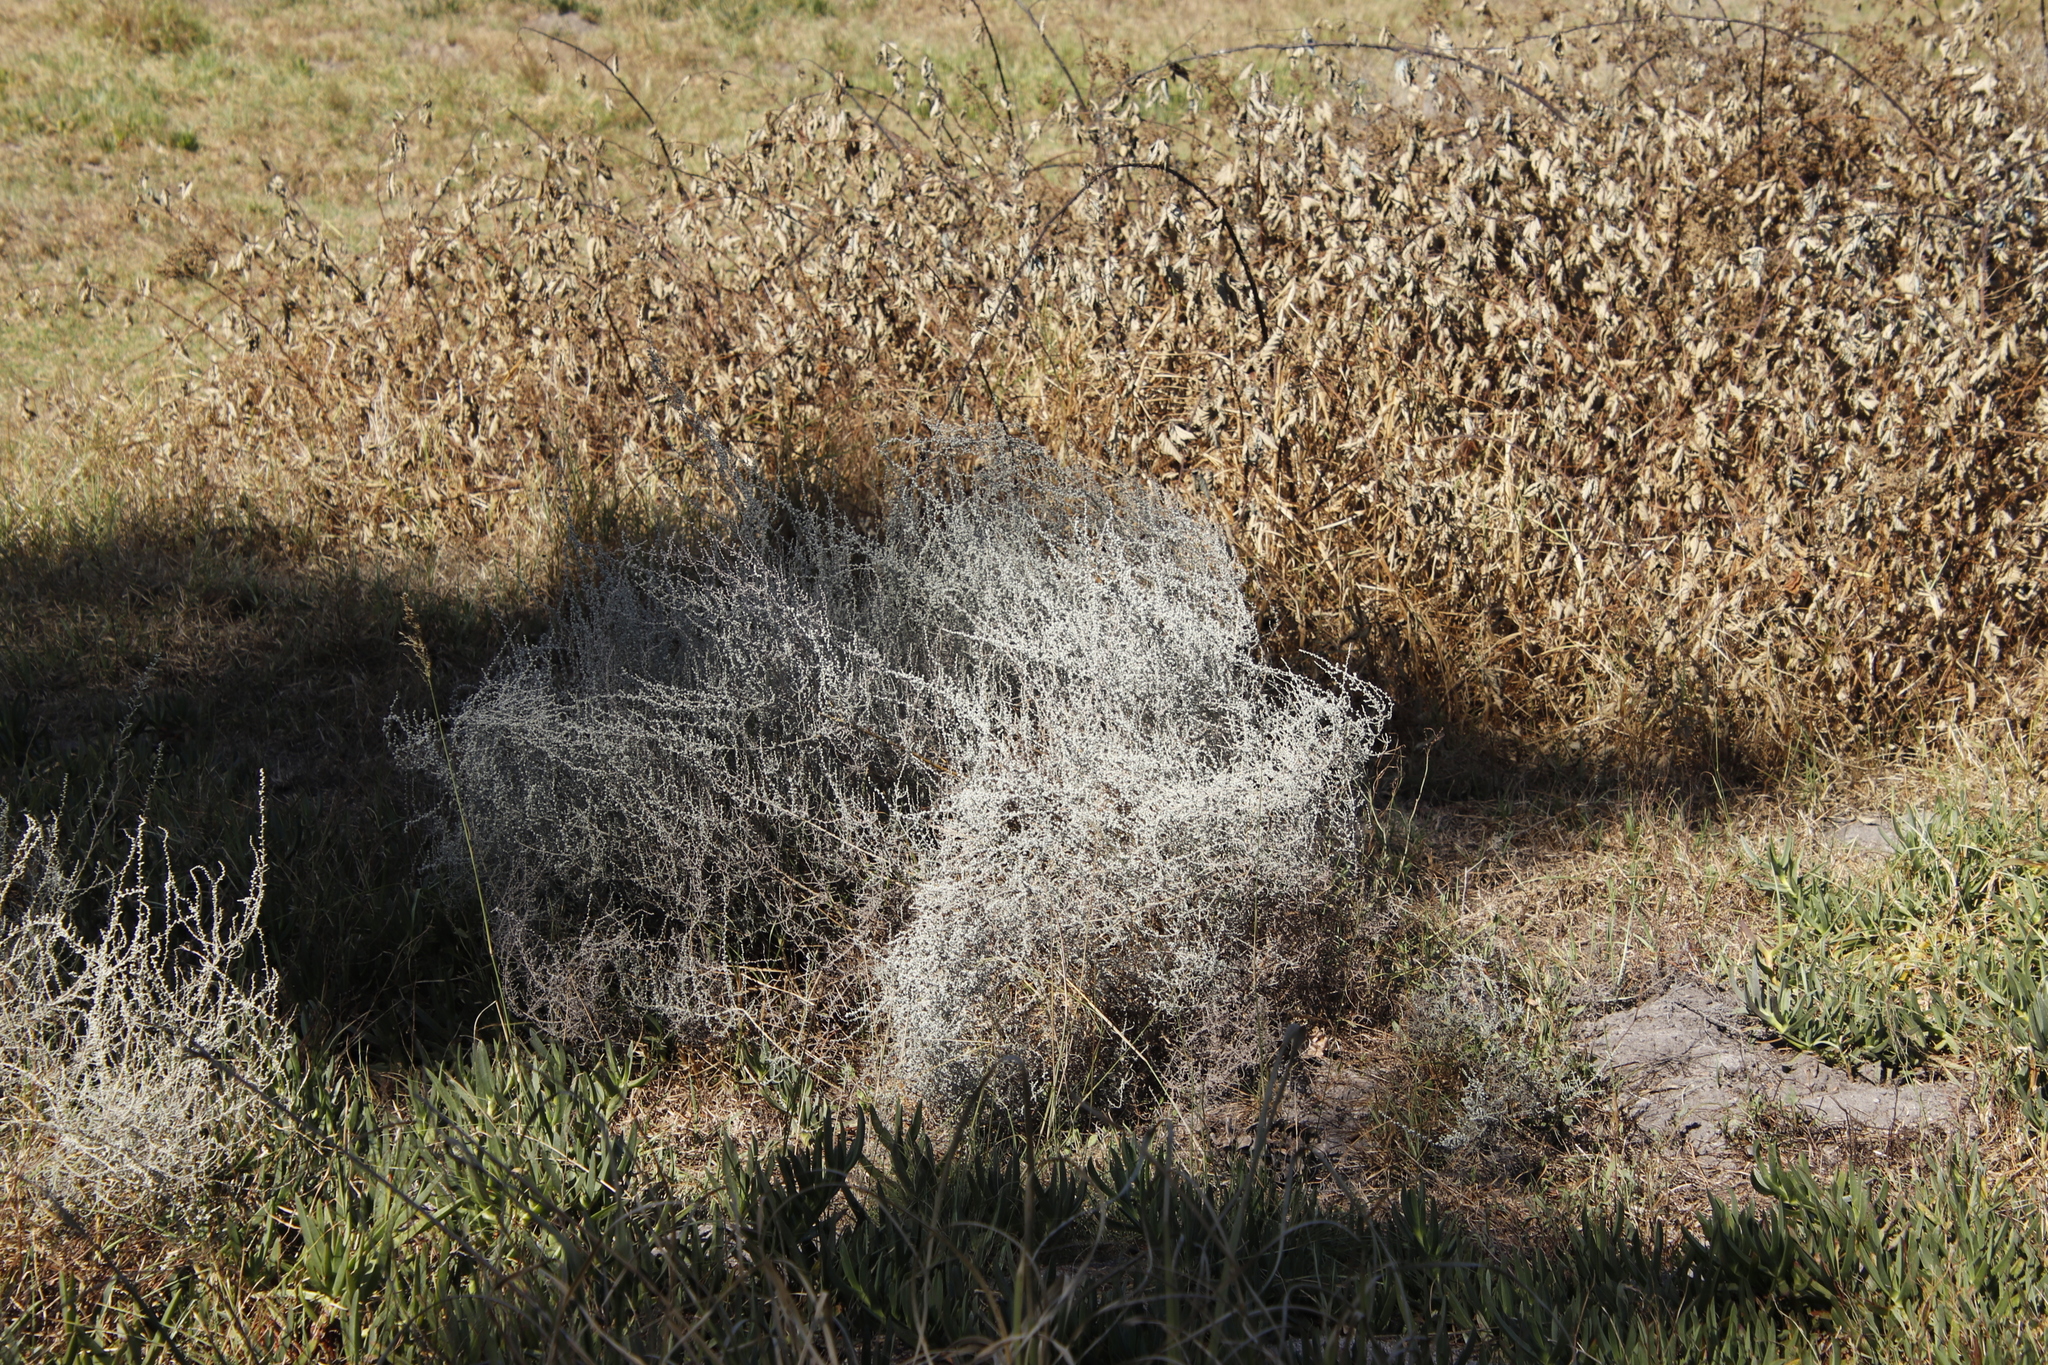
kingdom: Plantae
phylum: Tracheophyta
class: Magnoliopsida
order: Asterales
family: Asteraceae
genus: Seriphium
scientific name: Seriphium plumosum
